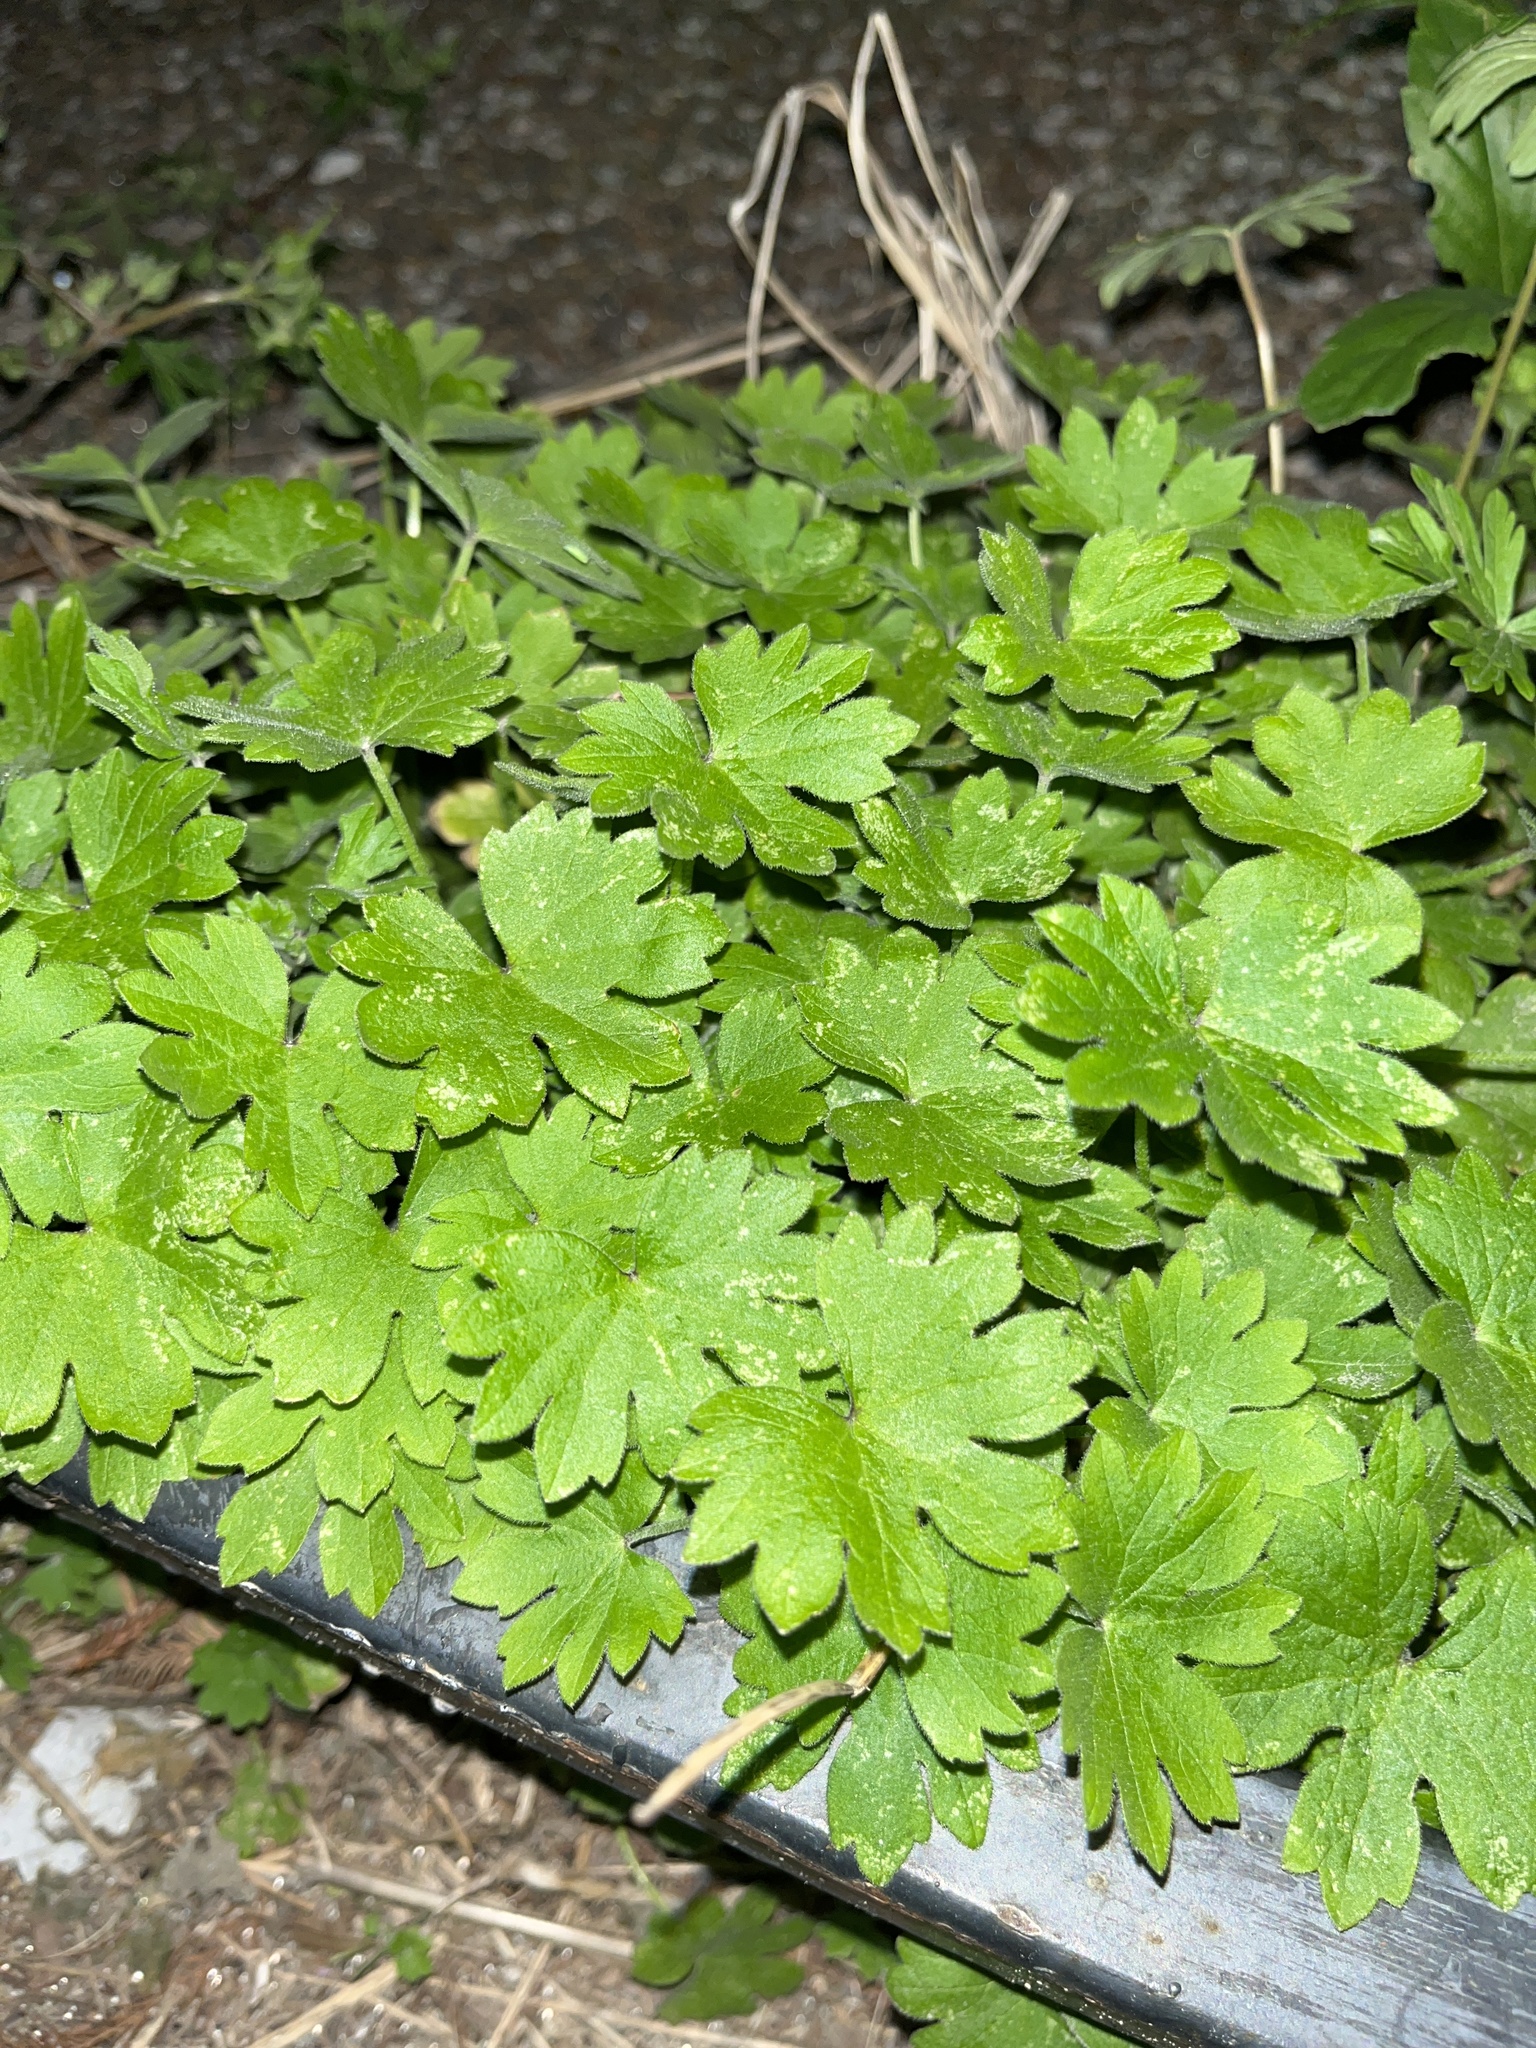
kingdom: Plantae
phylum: Tracheophyta
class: Magnoliopsida
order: Apiales
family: Apiaceae
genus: Bowlesia
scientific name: Bowlesia incana
